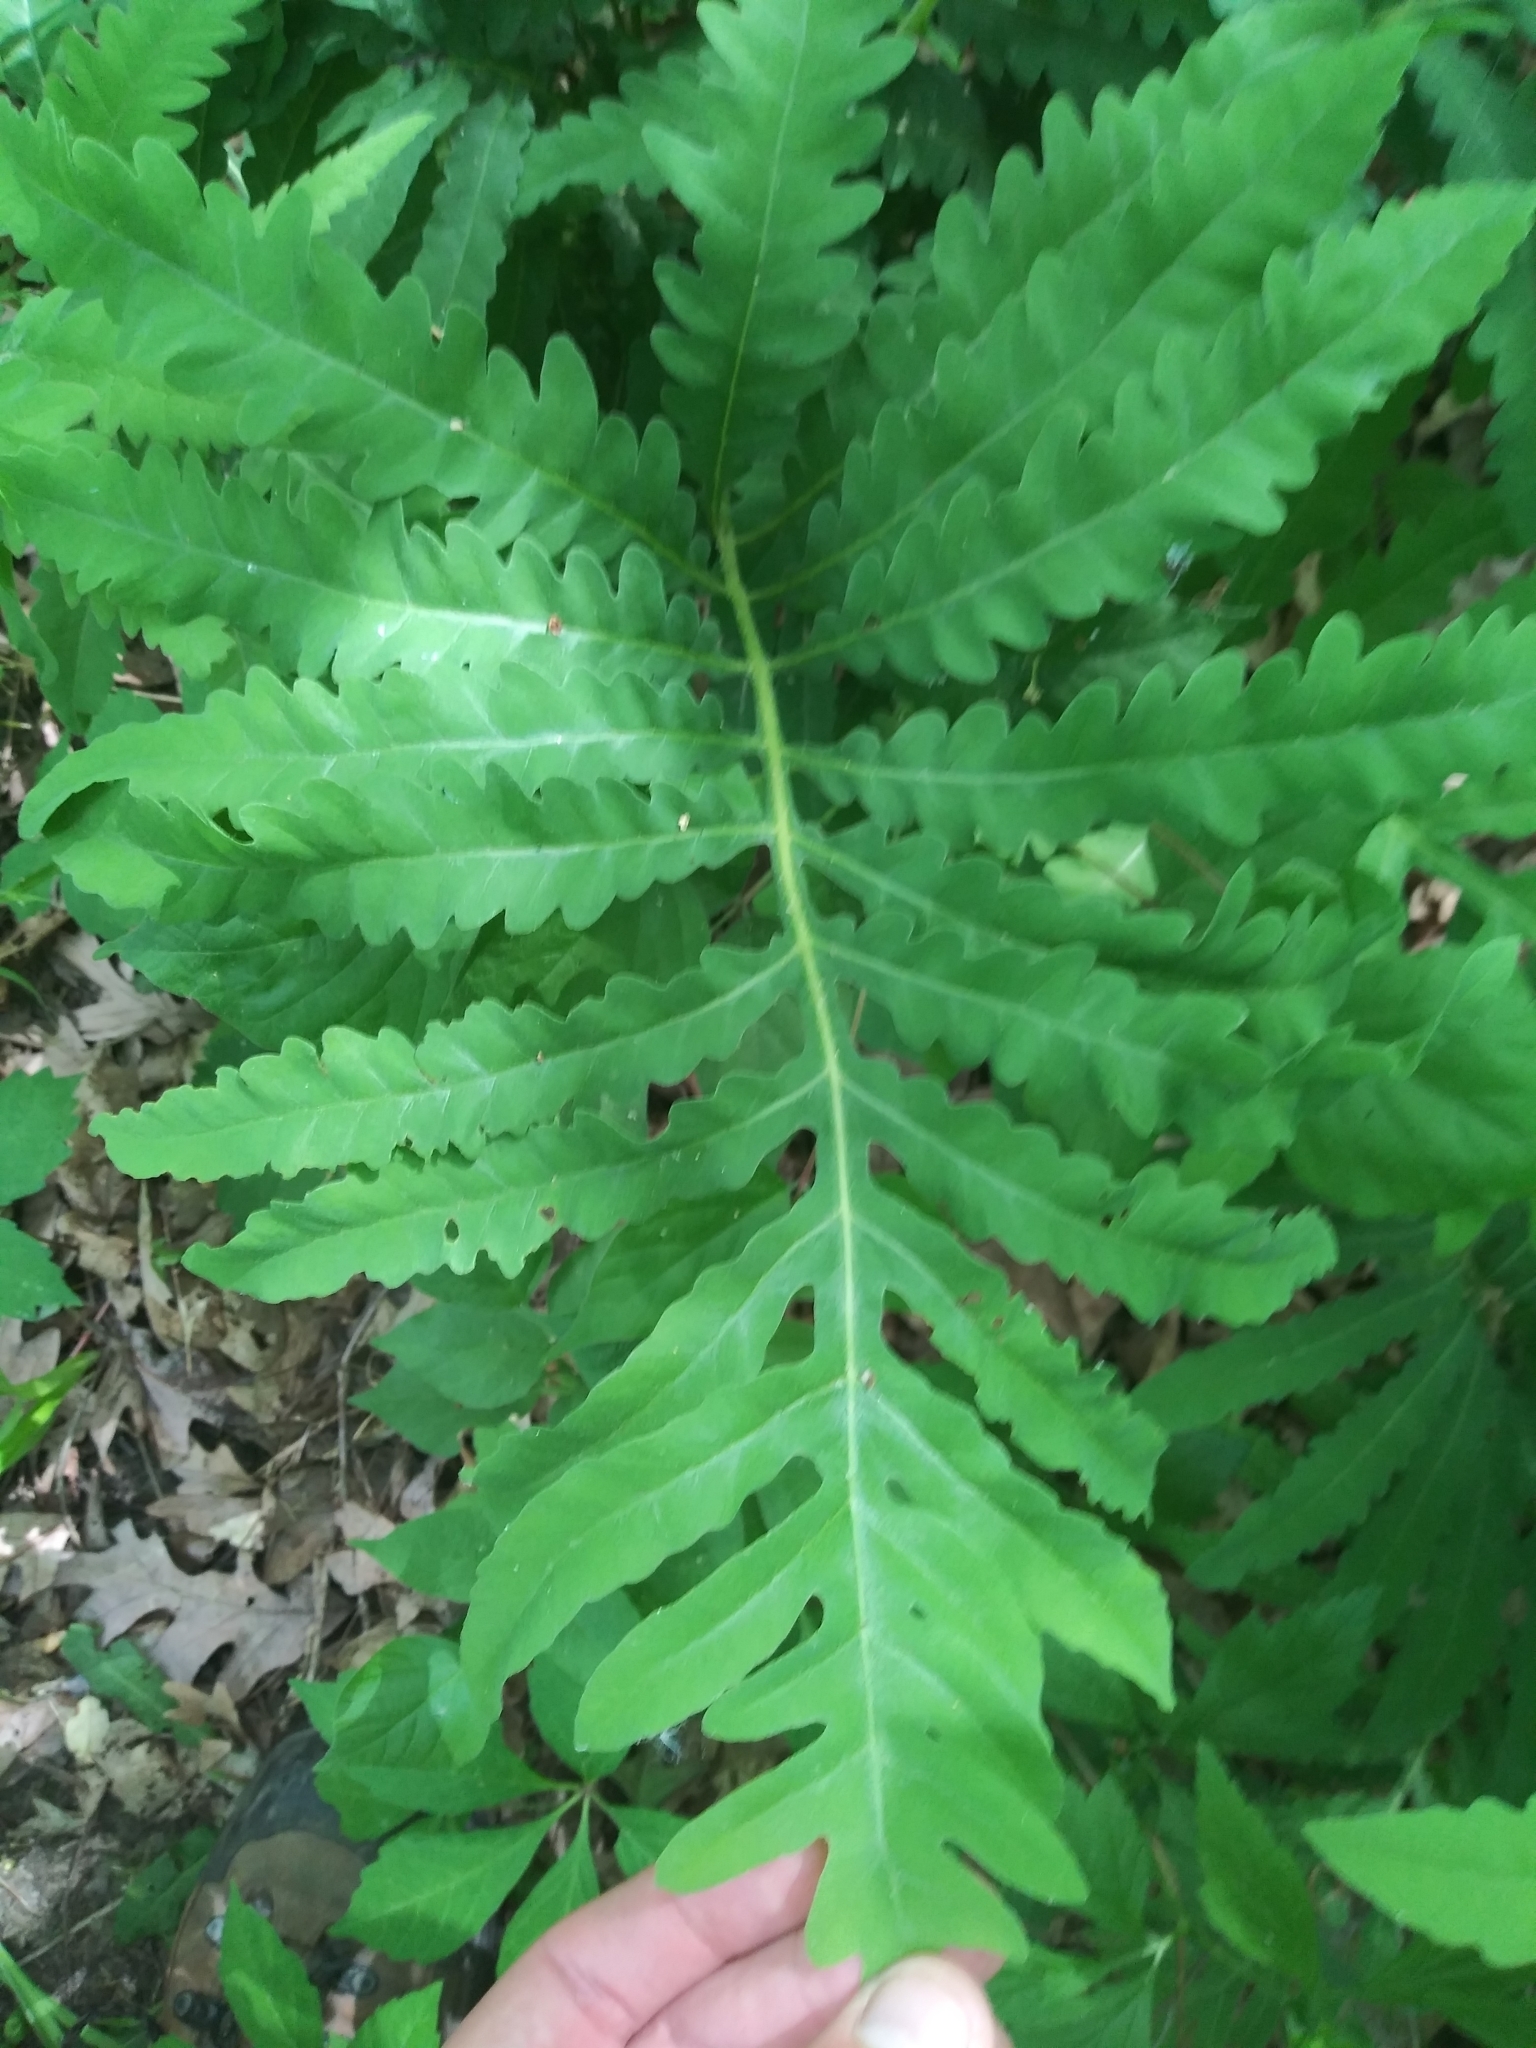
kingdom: Plantae
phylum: Tracheophyta
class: Polypodiopsida
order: Polypodiales
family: Onocleaceae
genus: Onoclea
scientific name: Onoclea sensibilis
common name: Sensitive fern
